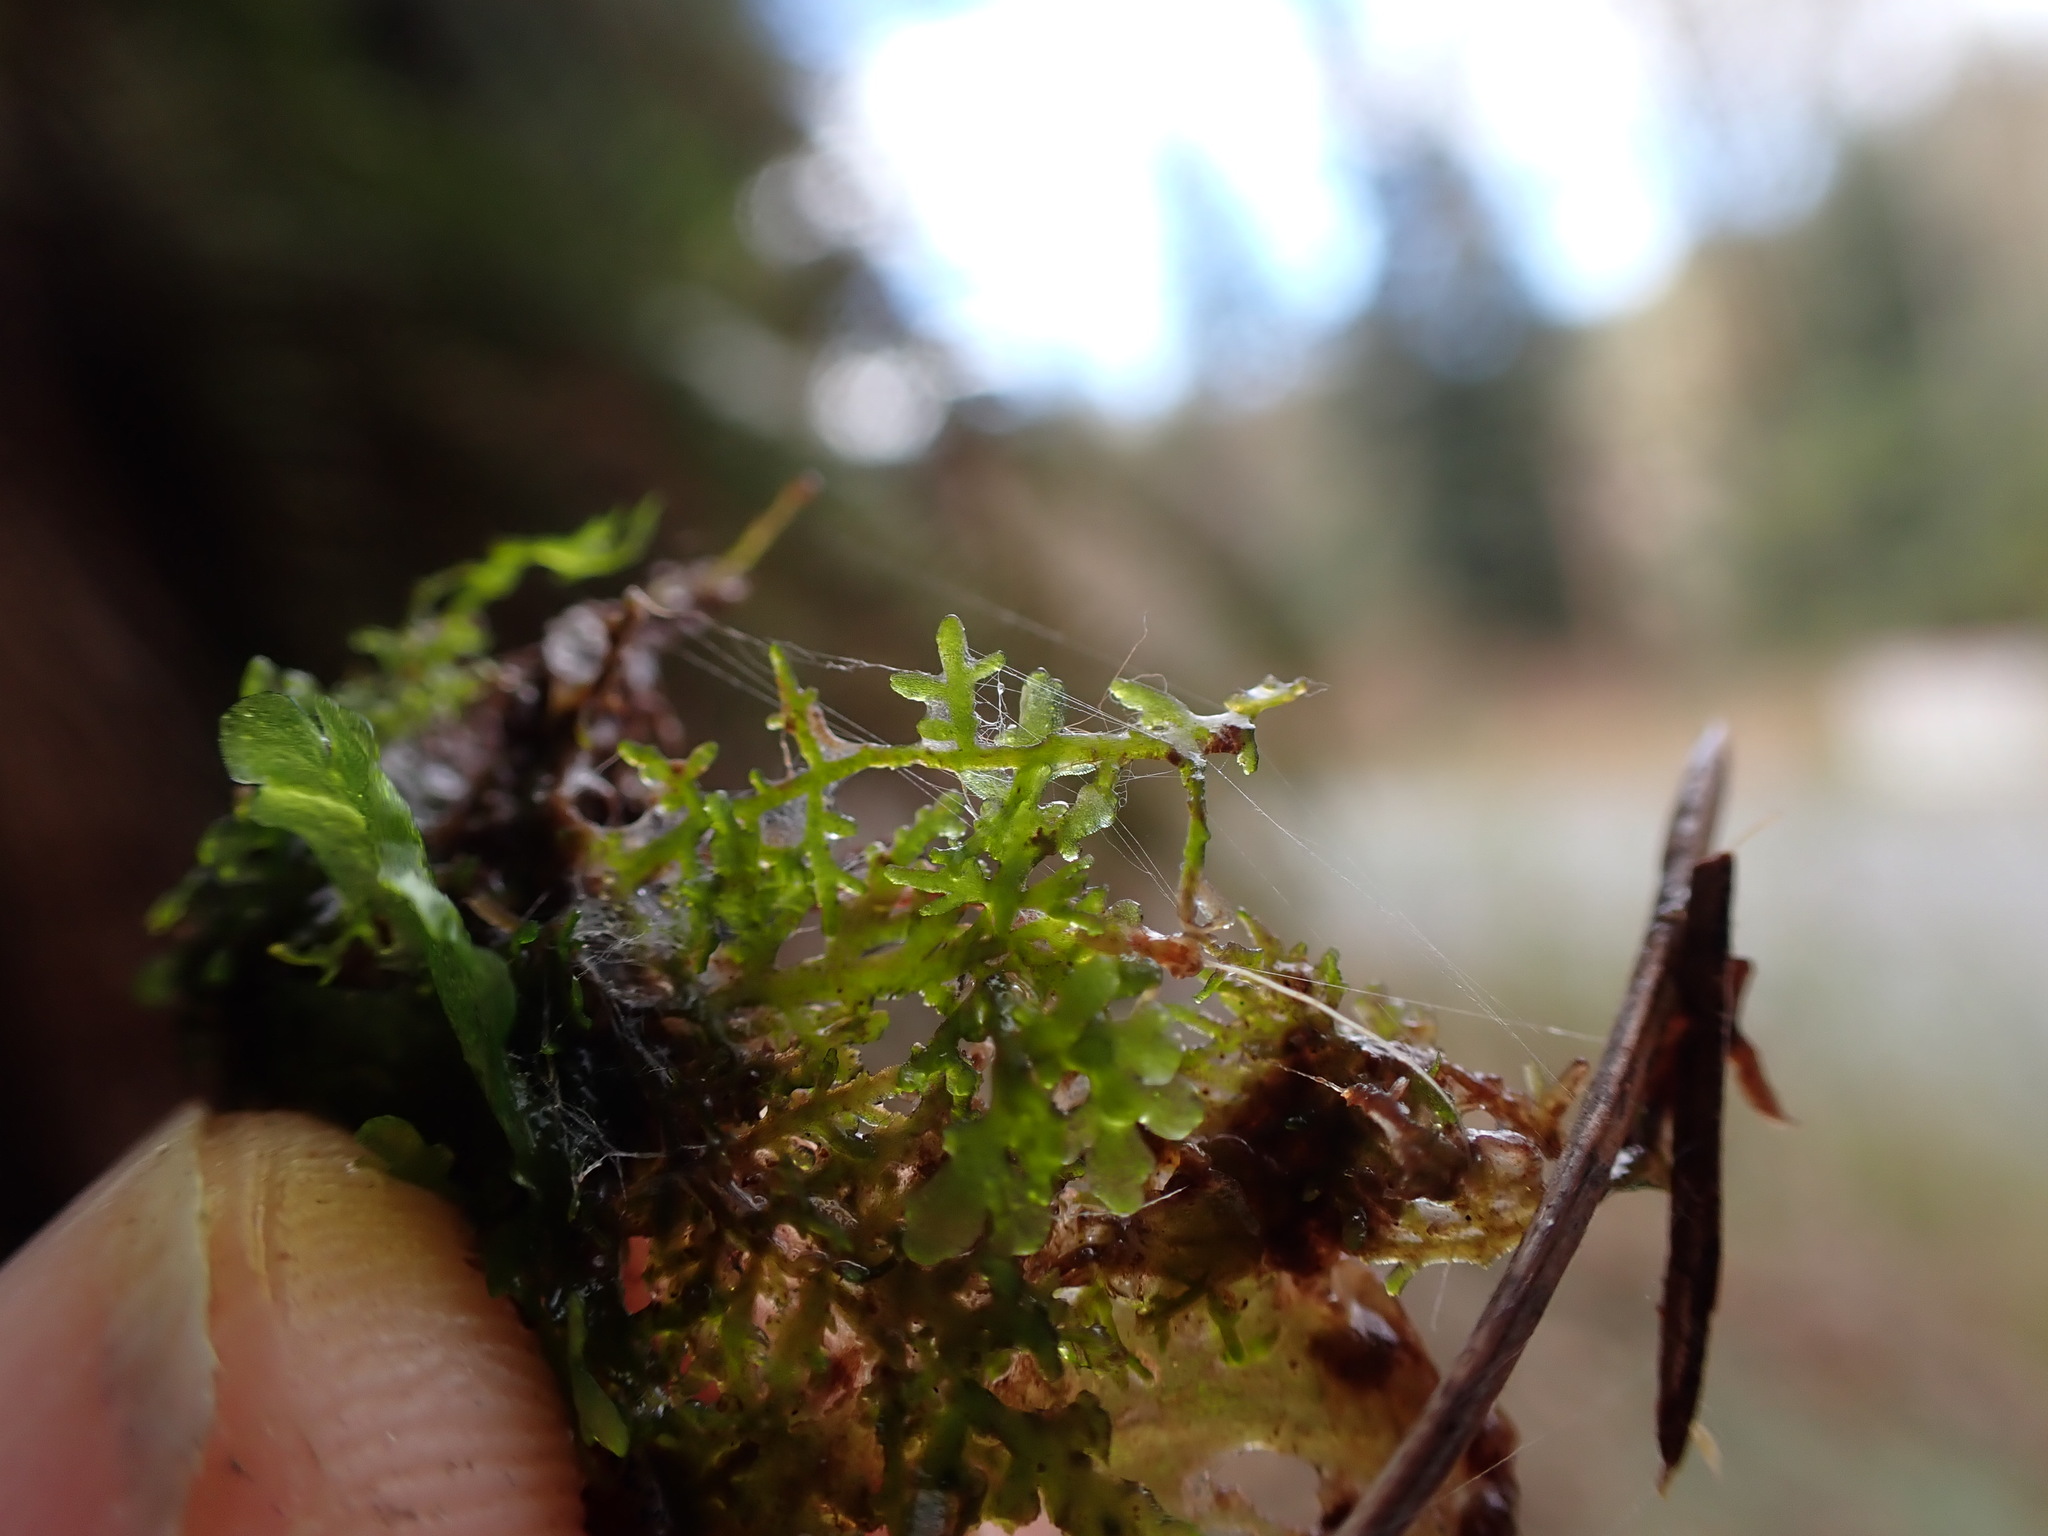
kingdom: Plantae
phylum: Marchantiophyta
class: Jungermanniopsida
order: Metzgeriales
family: Aneuraceae
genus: Riccardia
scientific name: Riccardia chamedryfolia
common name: Jagged germanderwort
